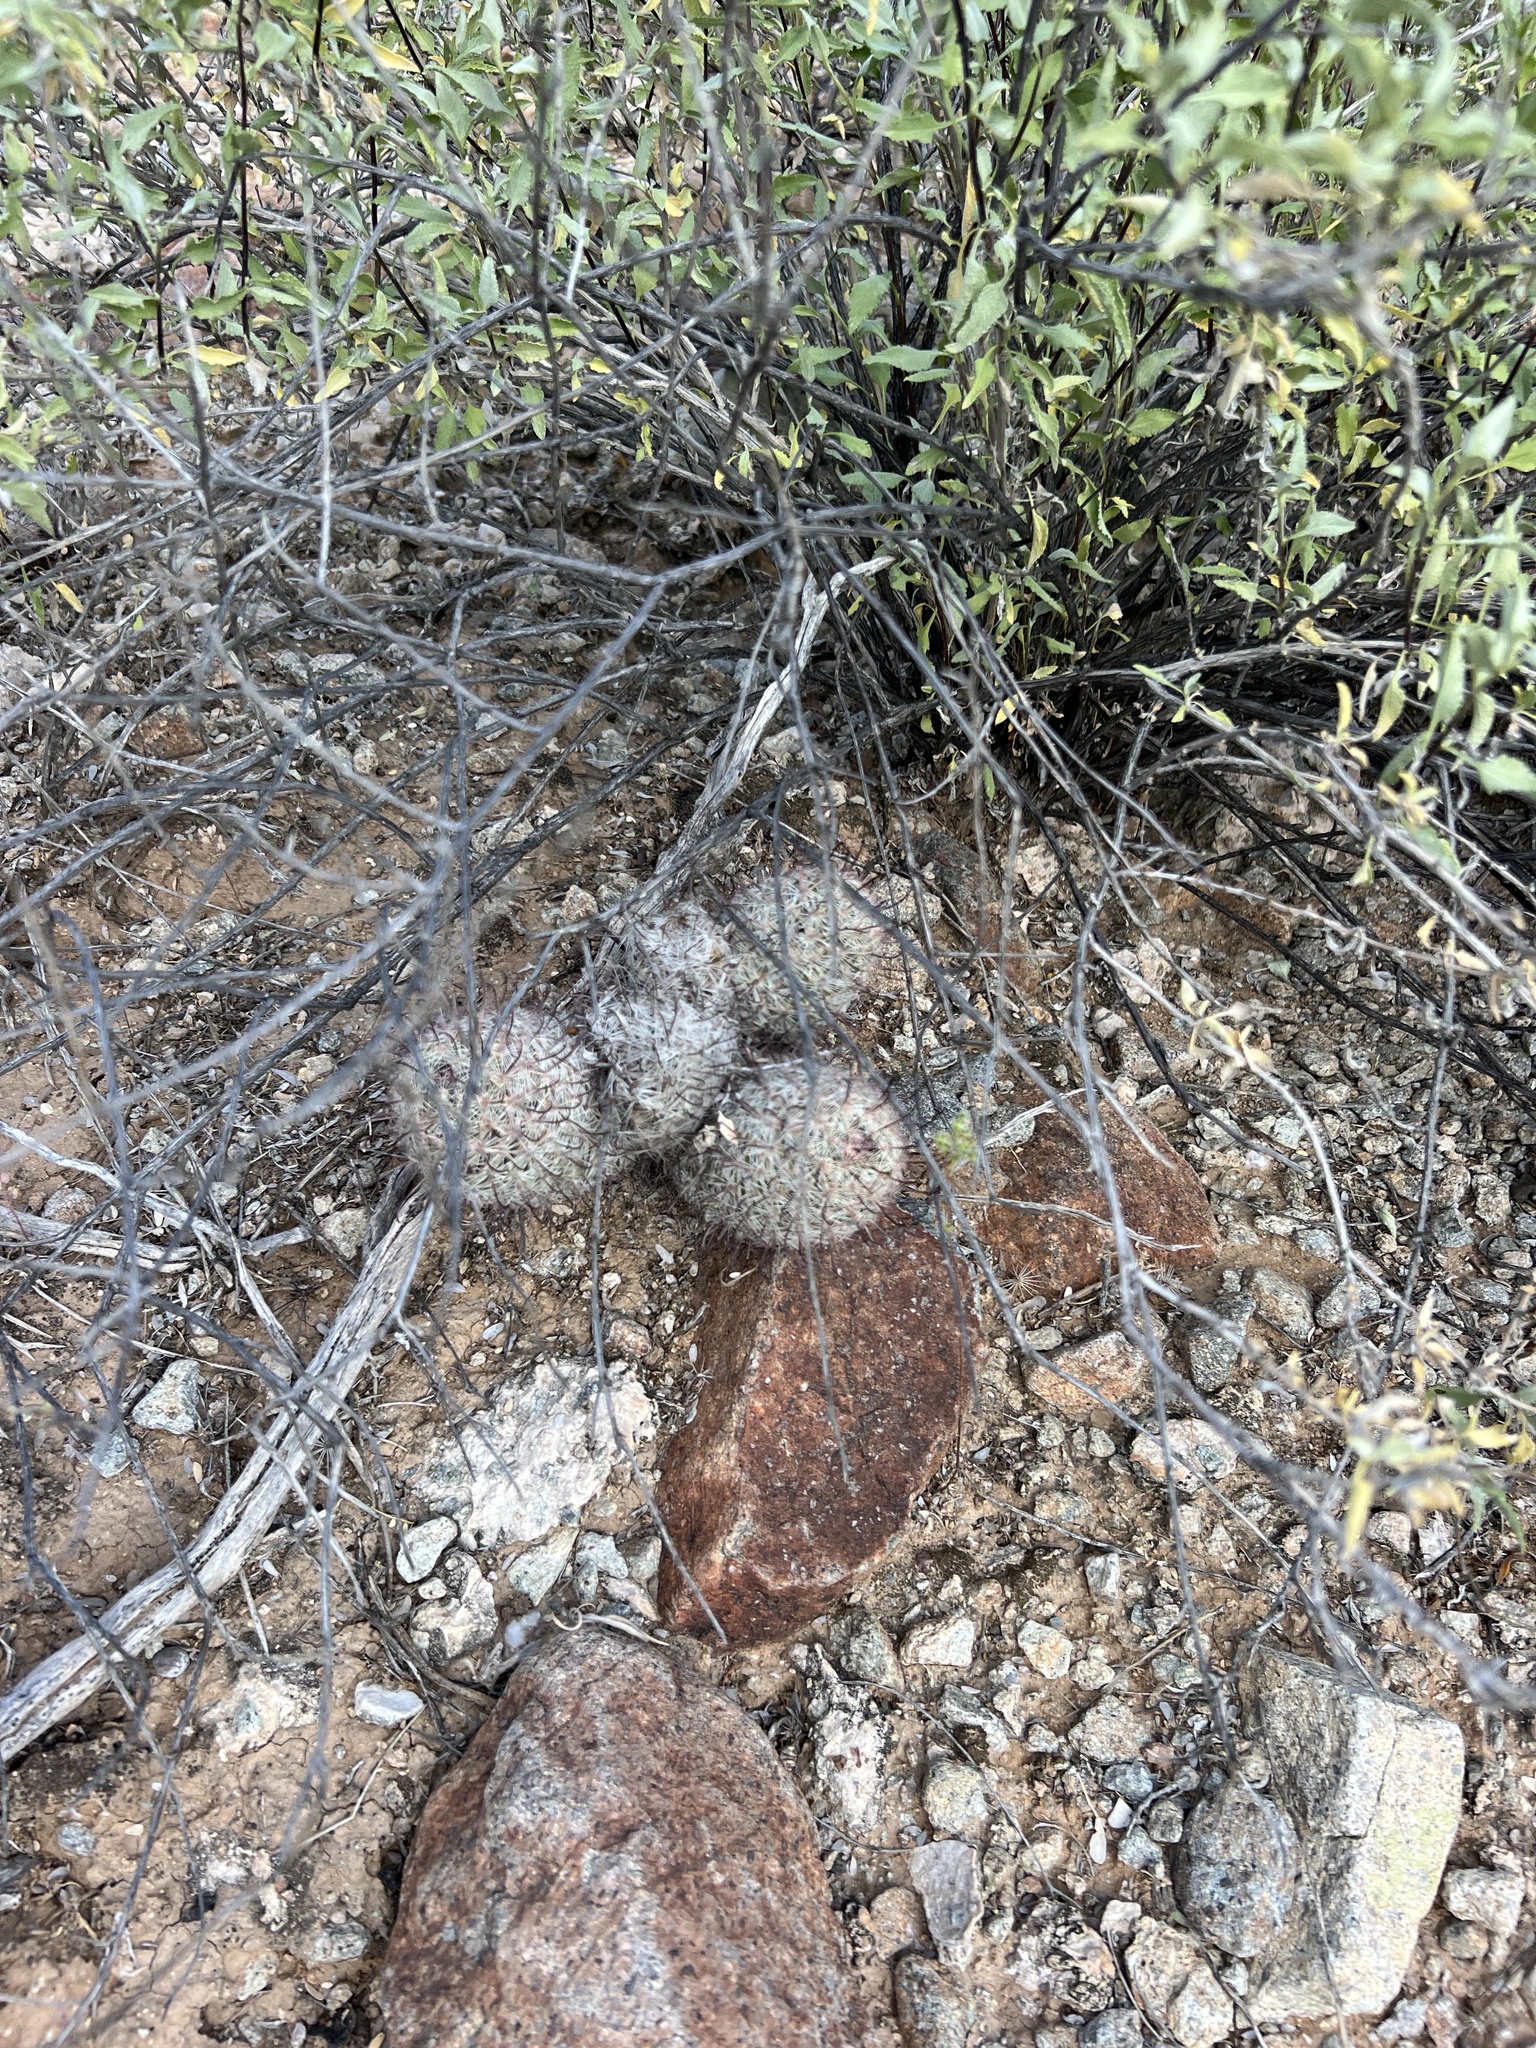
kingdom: Plantae
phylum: Tracheophyta
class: Magnoliopsida
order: Caryophyllales
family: Cactaceae
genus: Cochemiea
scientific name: Cochemiea grahamii
